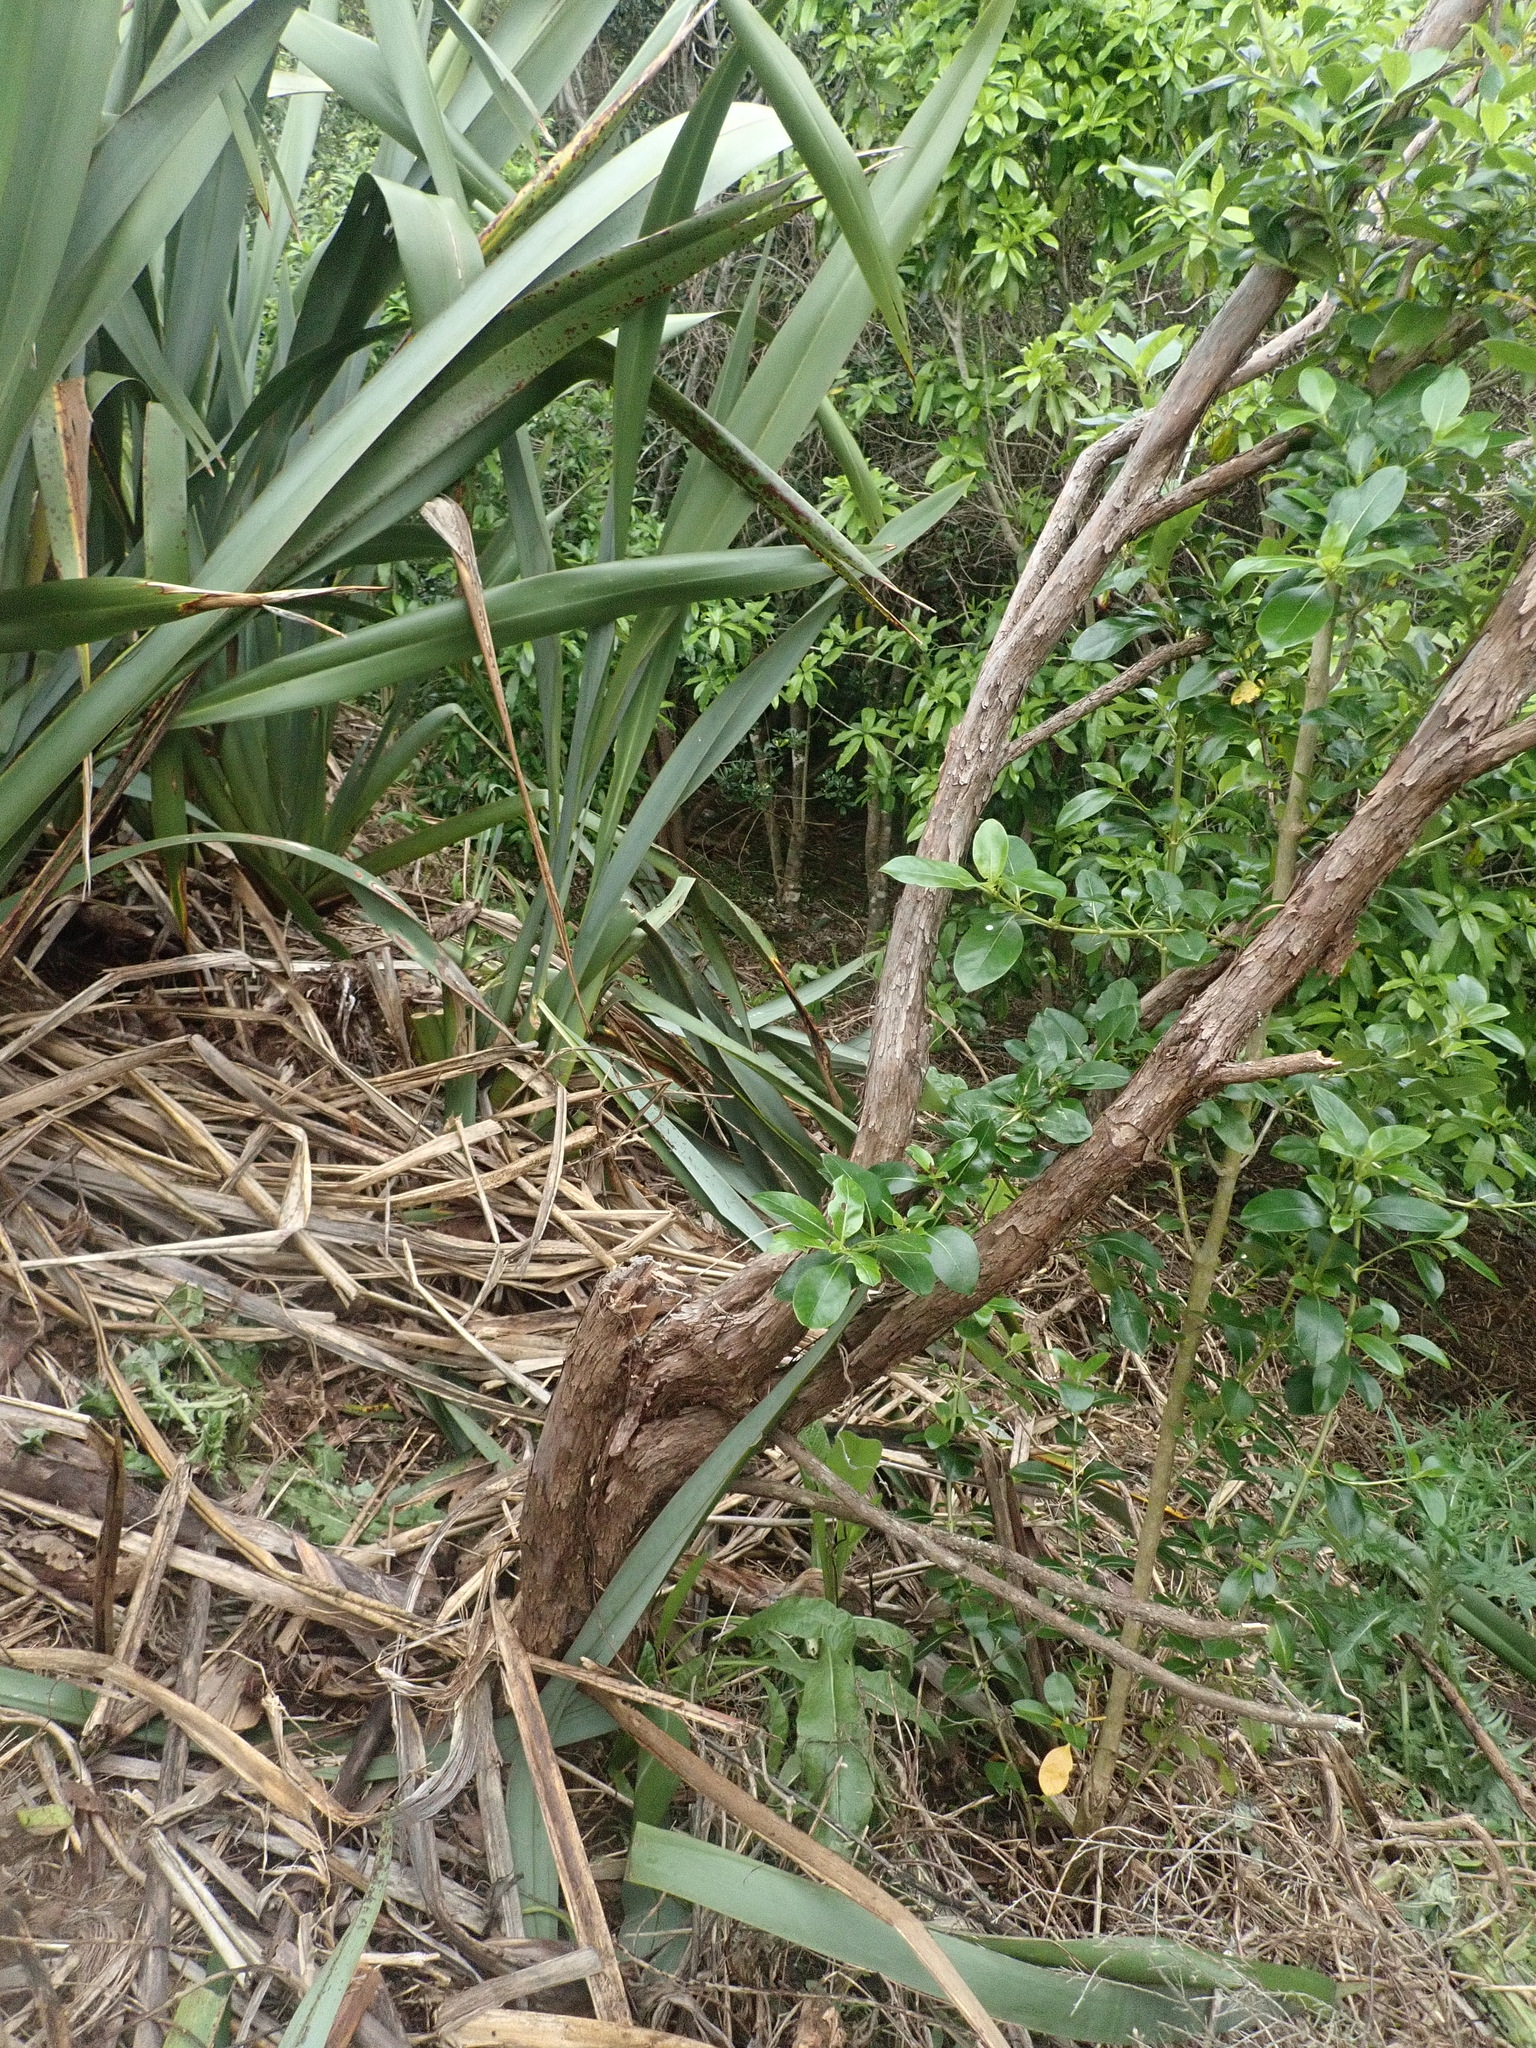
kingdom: Plantae
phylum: Tracheophyta
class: Magnoliopsida
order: Myrtales
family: Myrtaceae
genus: Leptospermum
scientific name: Leptospermum scoparium
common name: Broom tea-tree
